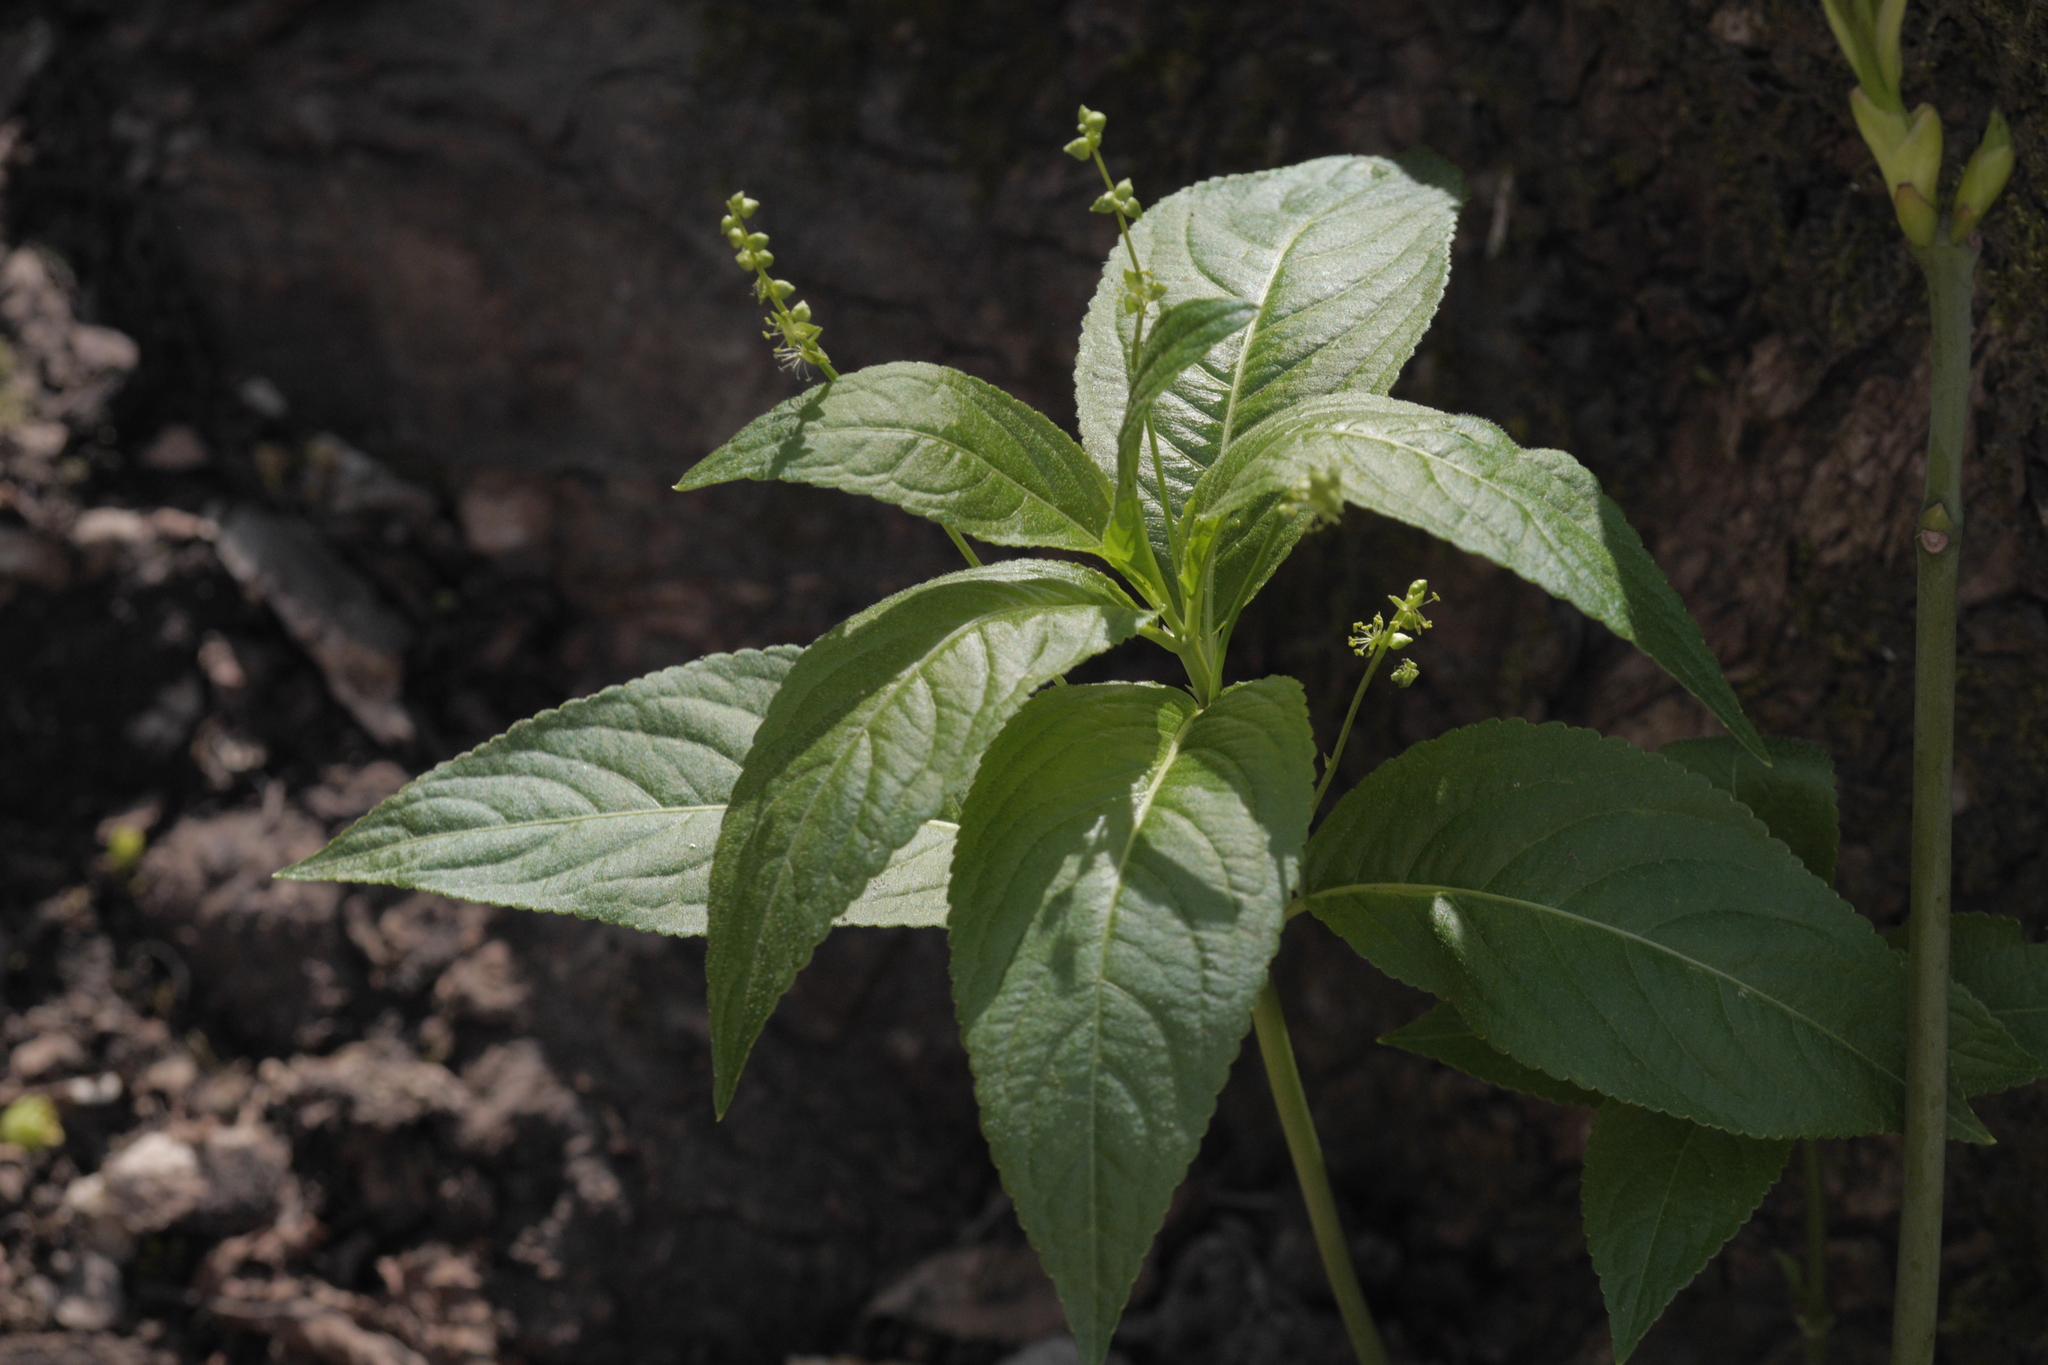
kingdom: Plantae
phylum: Tracheophyta
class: Magnoliopsida
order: Malpighiales
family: Euphorbiaceae
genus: Mercurialis
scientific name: Mercurialis perennis
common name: Dog mercury
